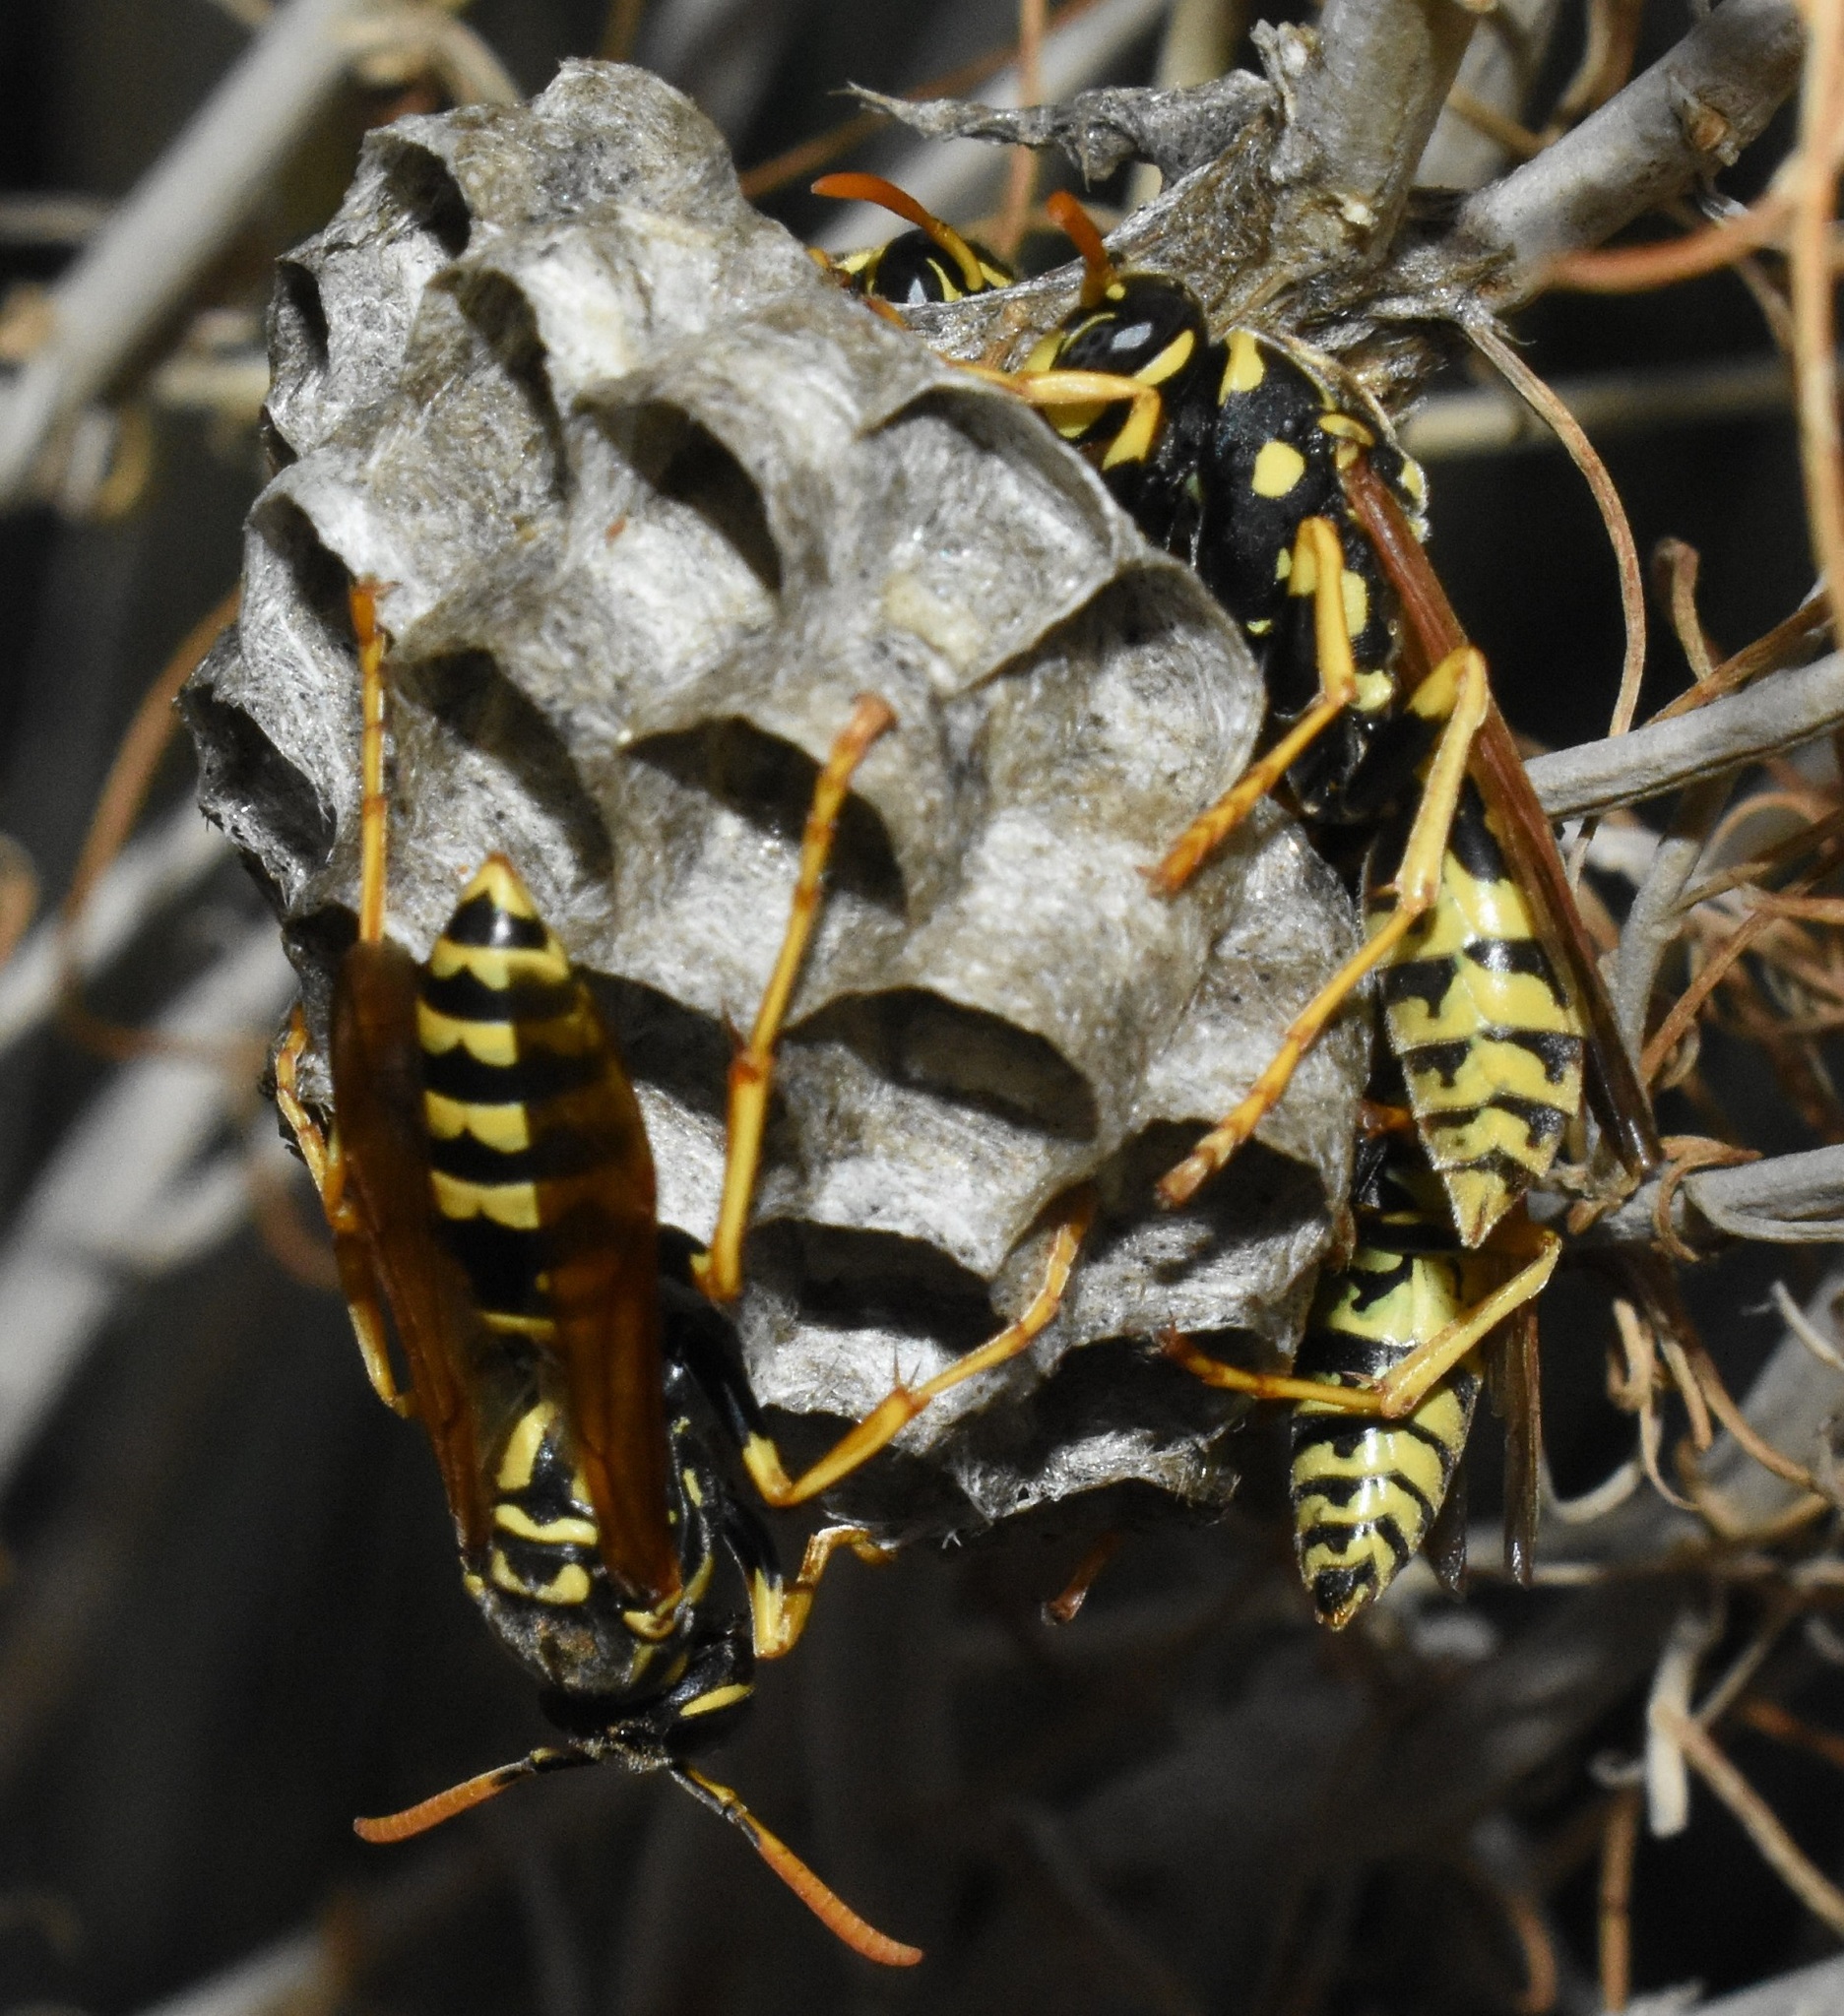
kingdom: Animalia
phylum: Arthropoda
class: Insecta
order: Hymenoptera
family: Eumenidae
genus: Polistes
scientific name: Polistes dominula
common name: Paper wasp
